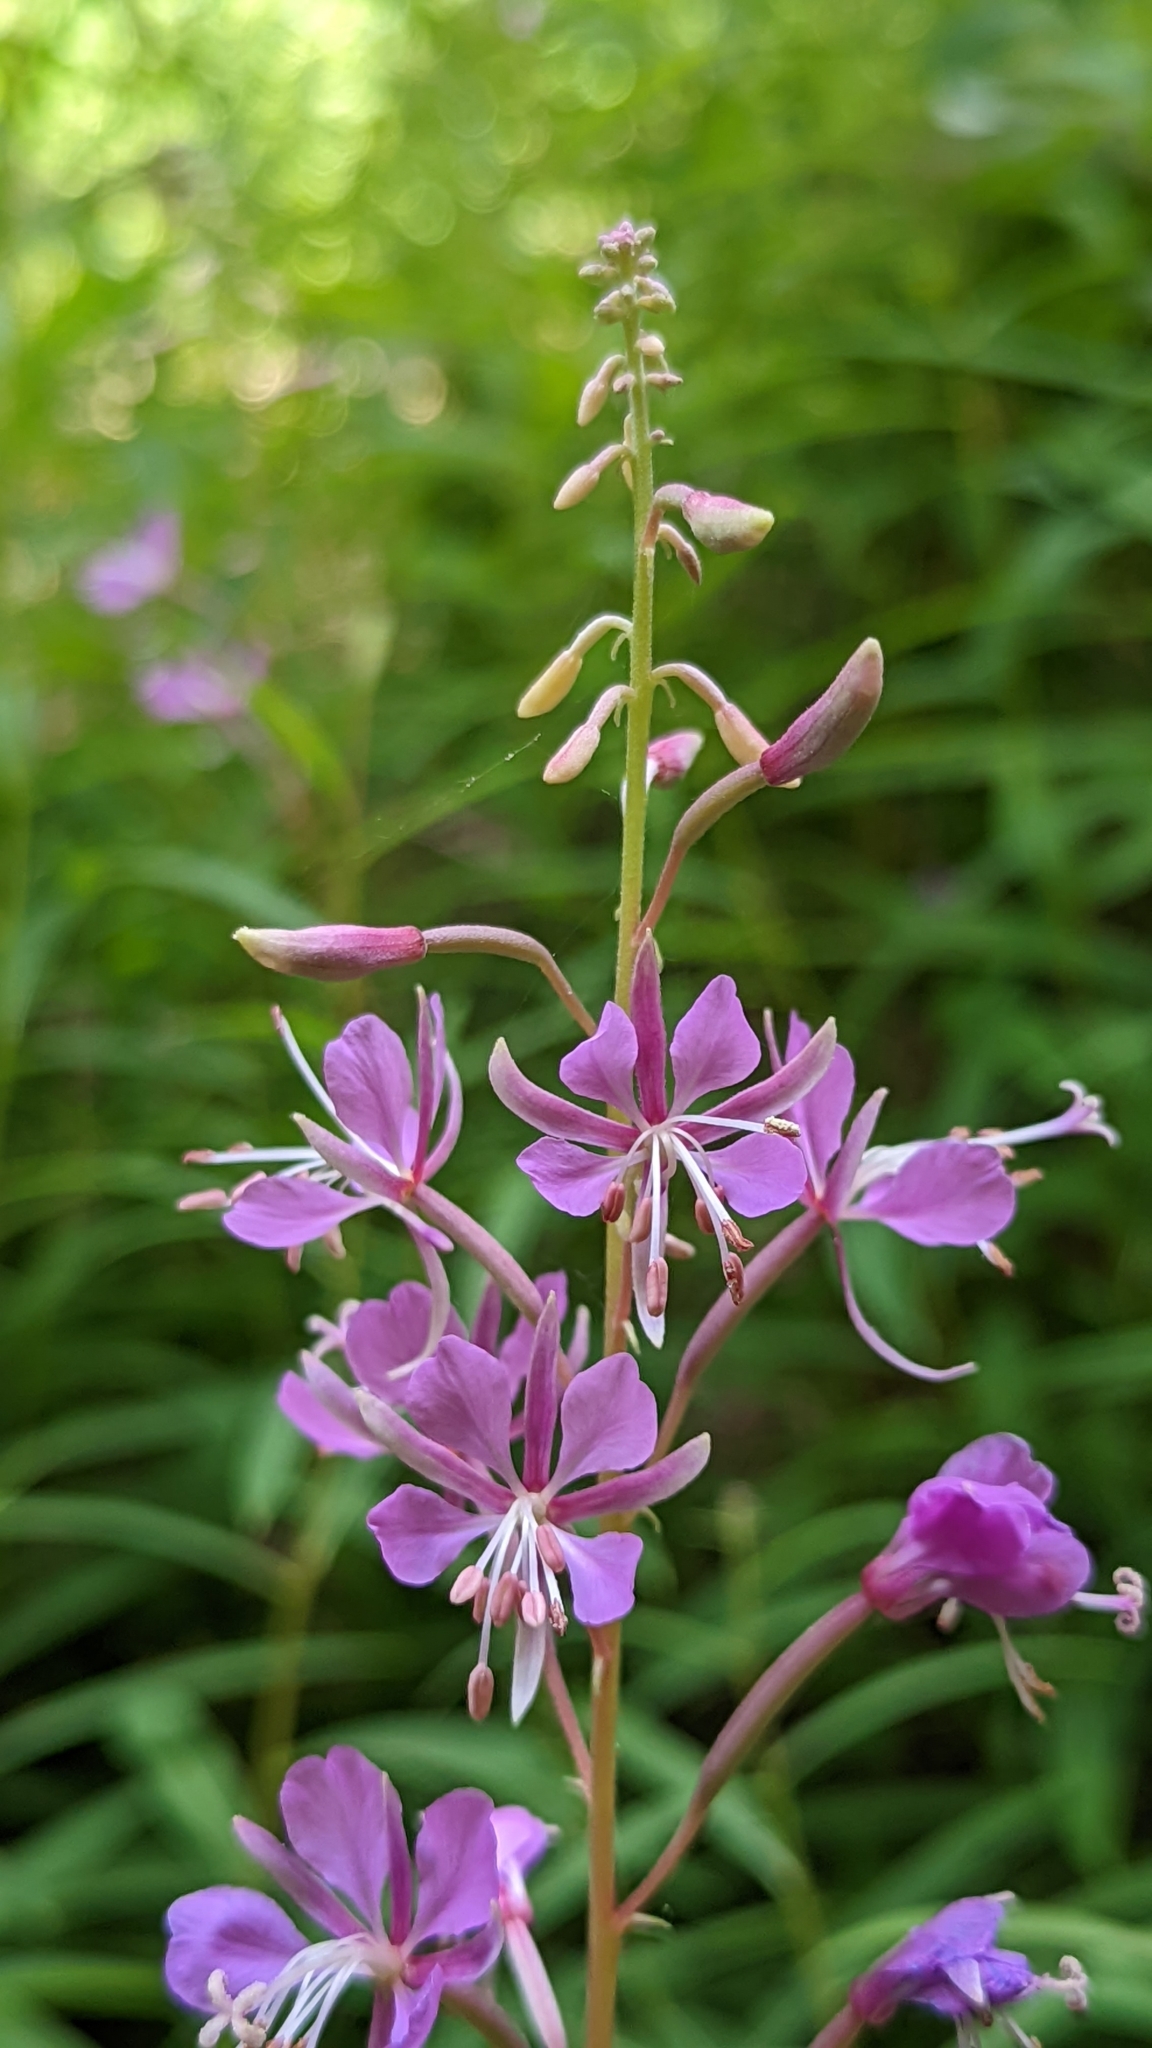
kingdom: Plantae
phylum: Tracheophyta
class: Magnoliopsida
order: Myrtales
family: Onagraceae
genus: Chamaenerion
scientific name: Chamaenerion angustifolium
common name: Fireweed
